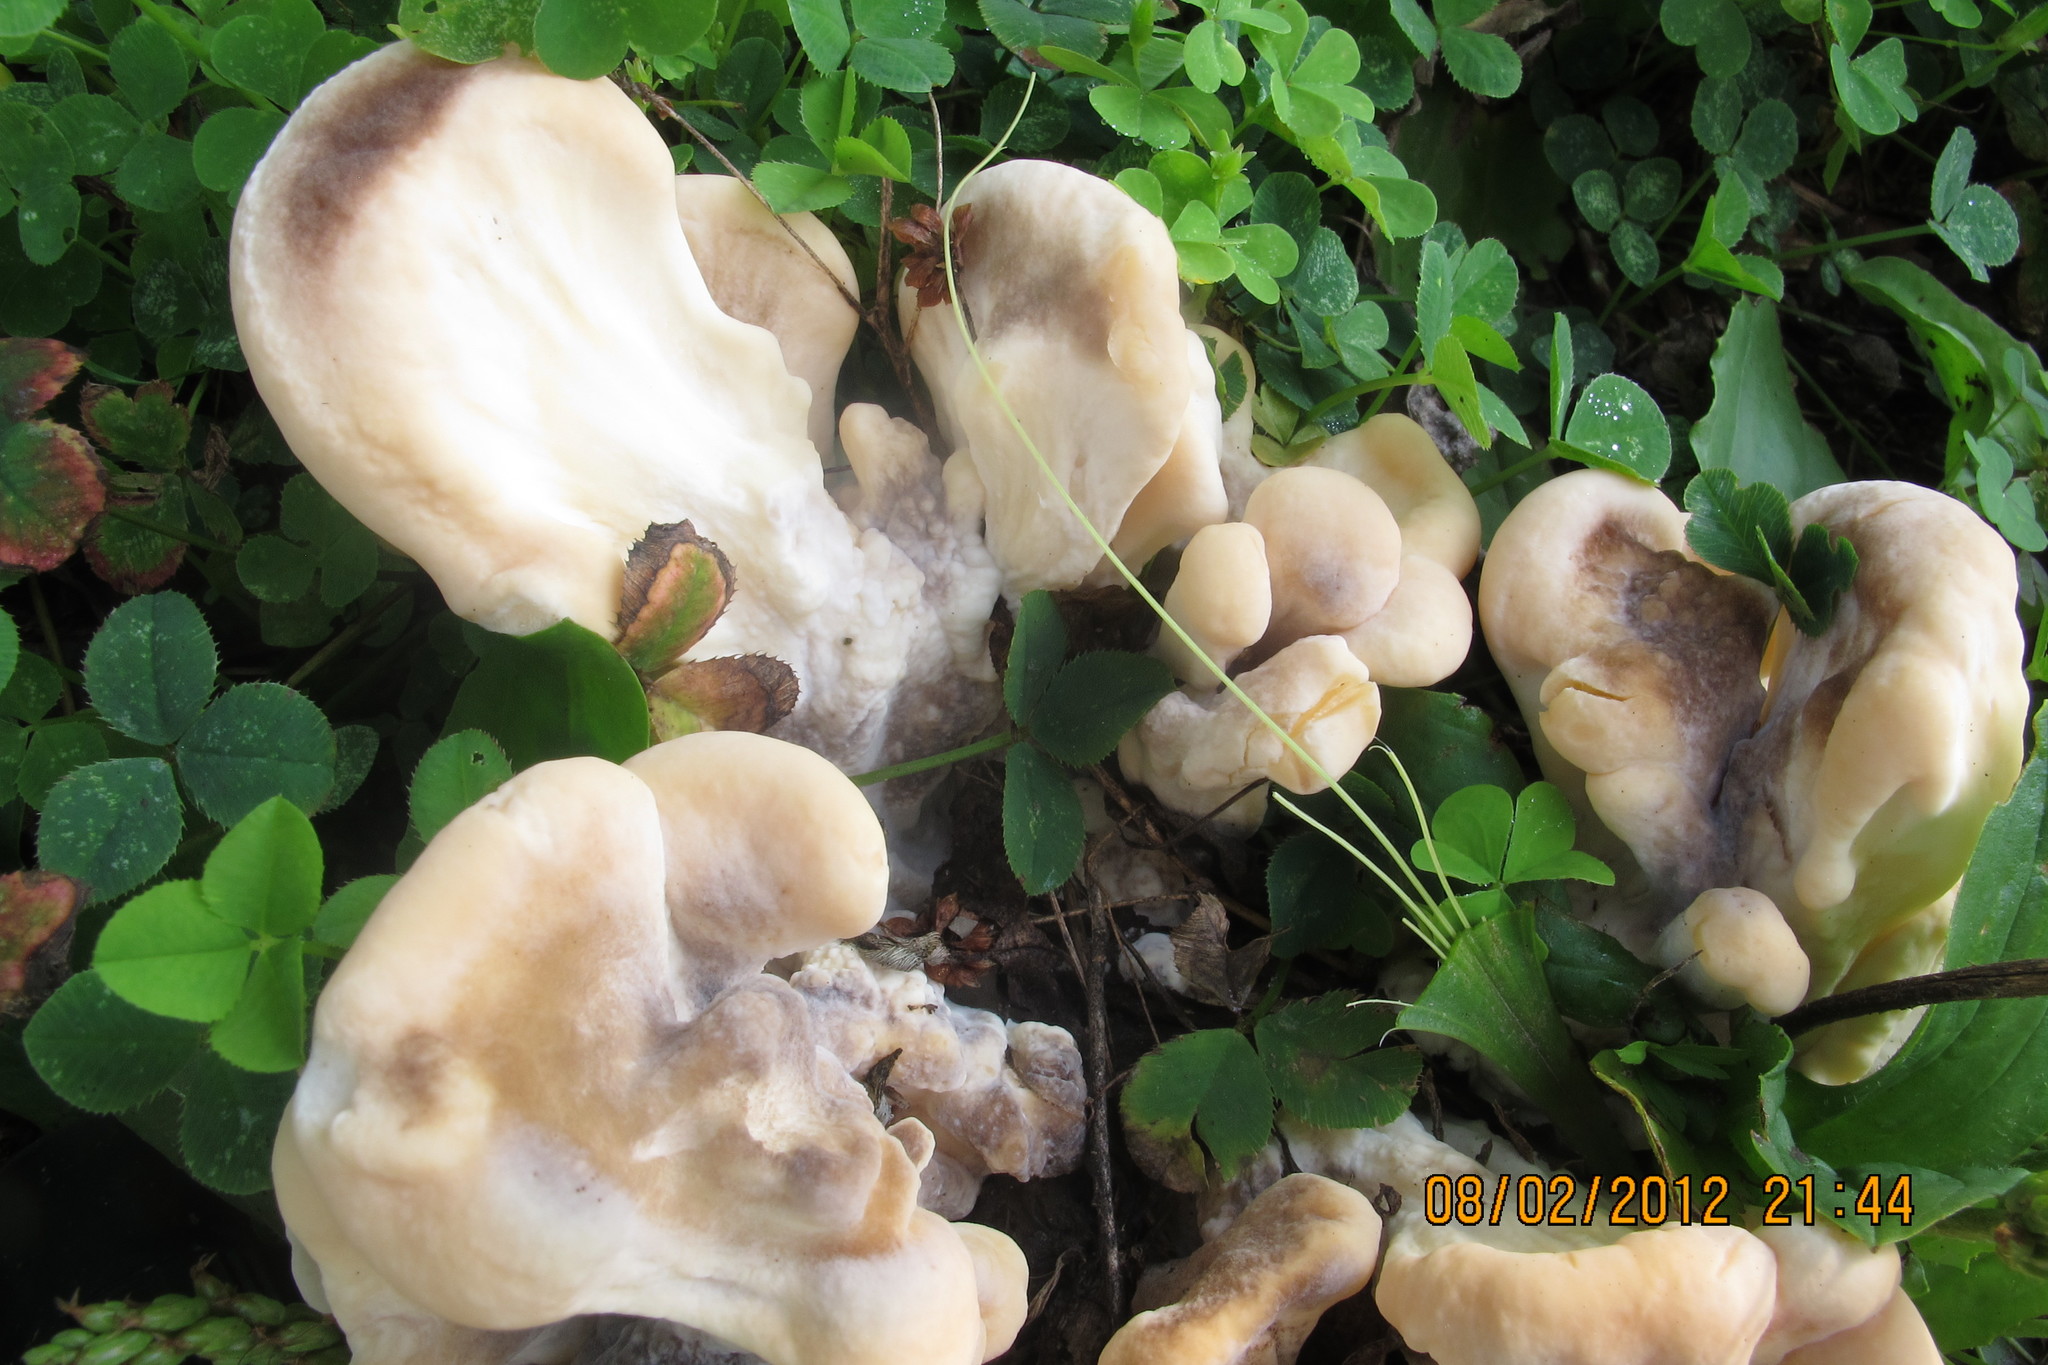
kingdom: Fungi
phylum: Basidiomycota
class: Agaricomycetes
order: Polyporales
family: Meripilaceae
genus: Meripilus
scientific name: Meripilus sumstinei
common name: Black-staining polypore
